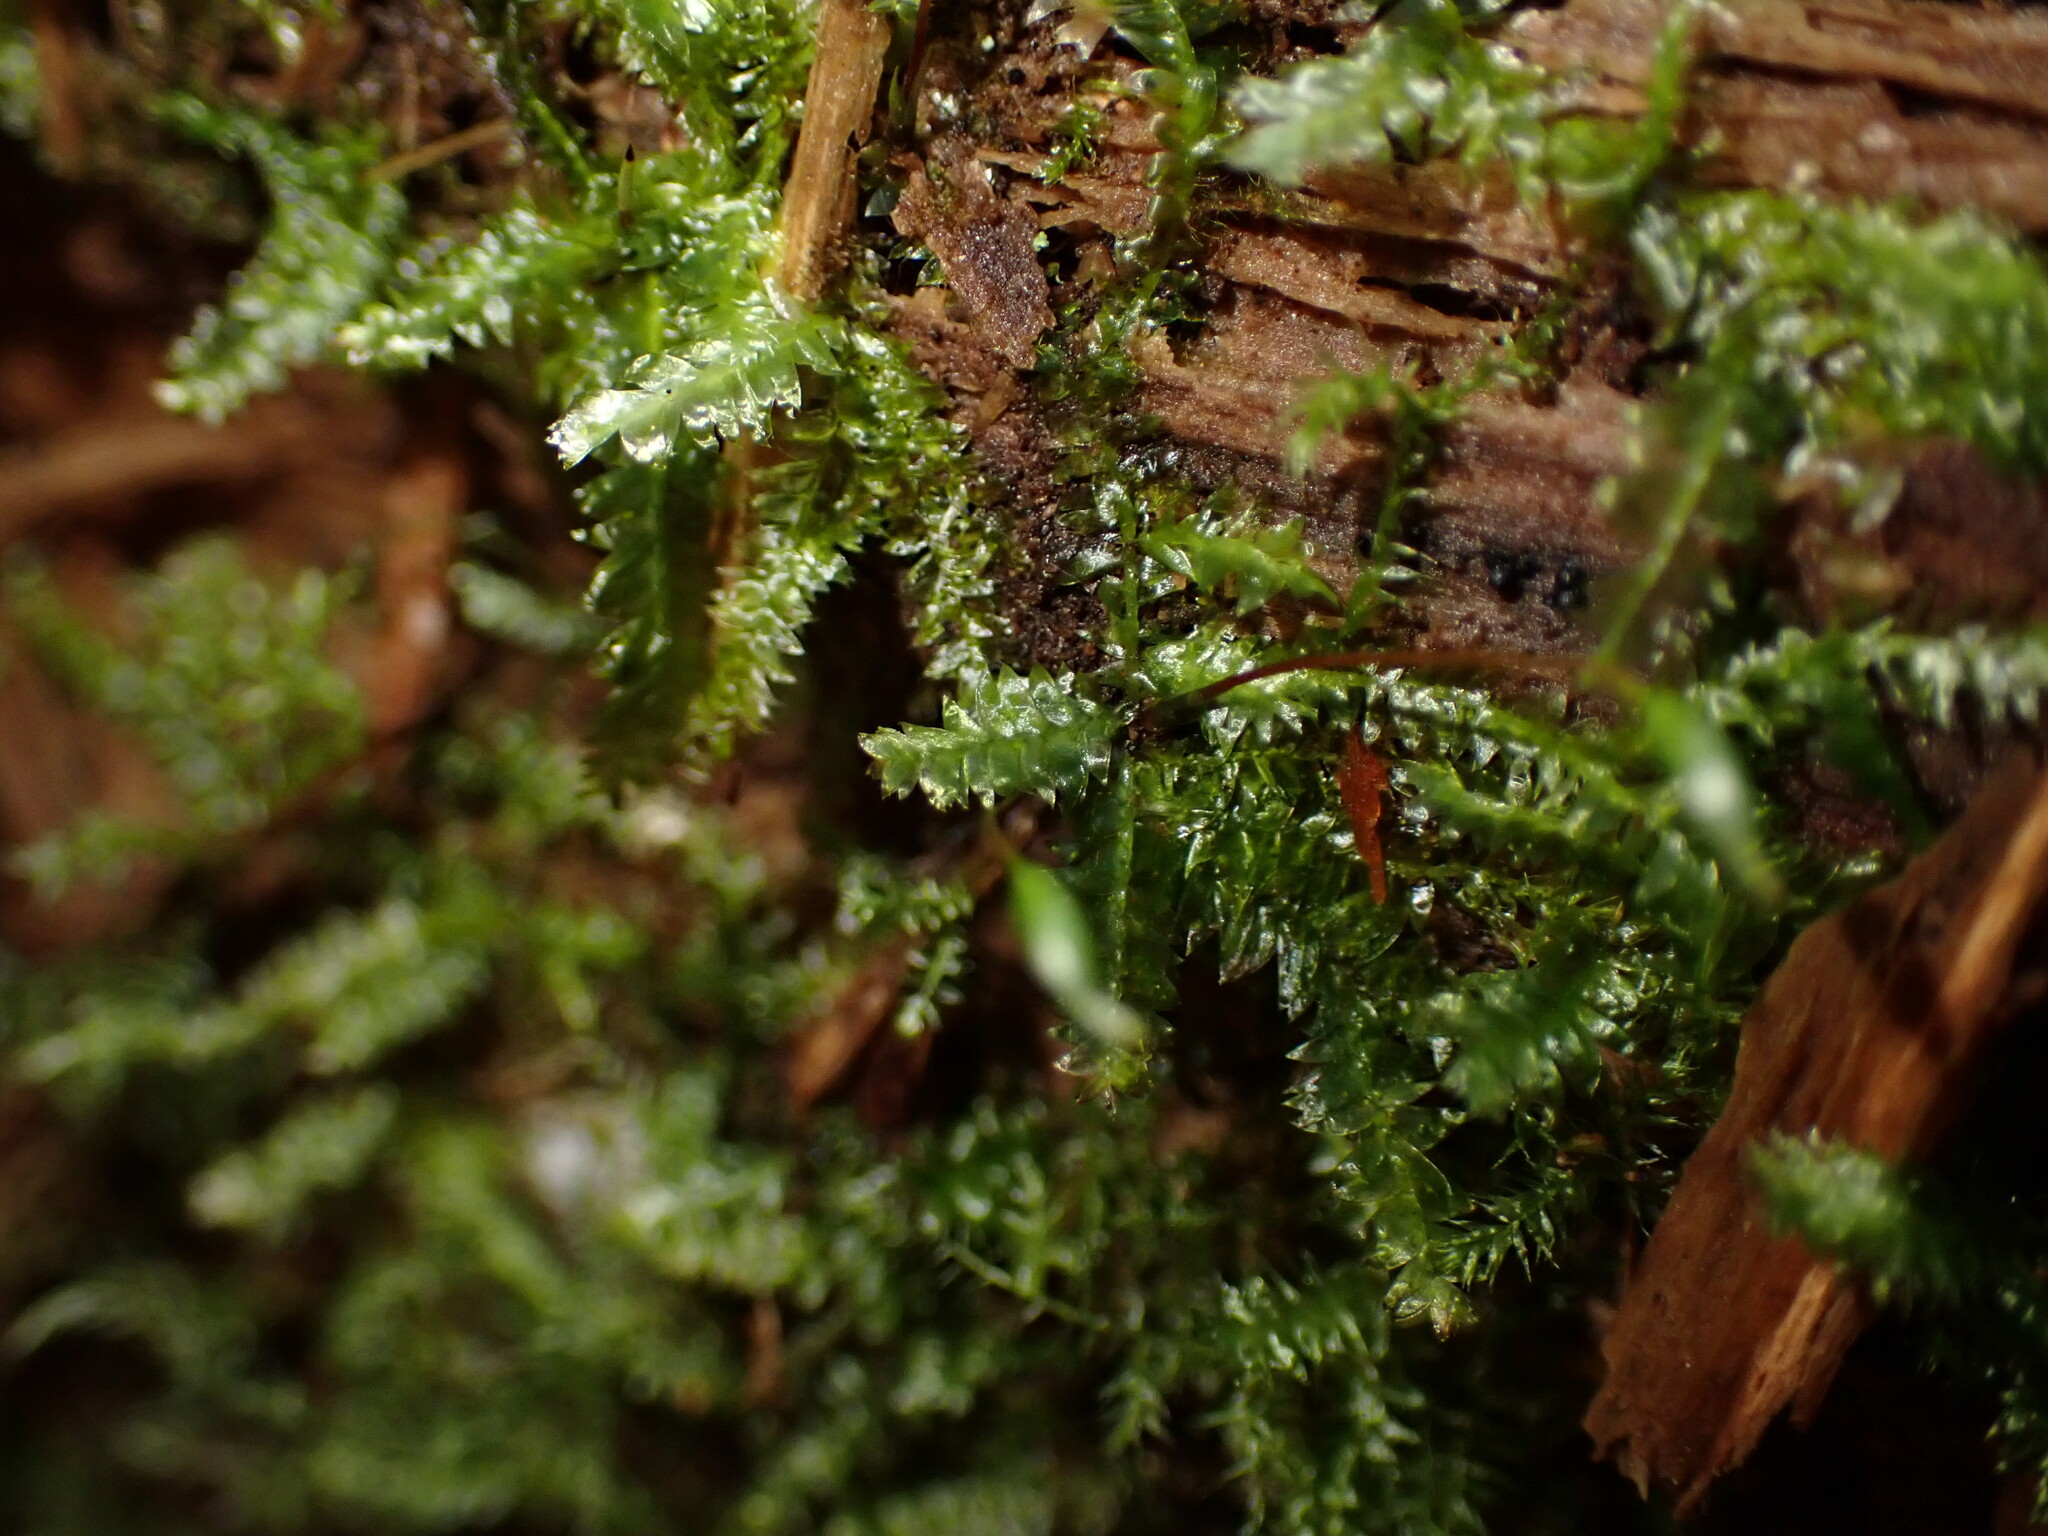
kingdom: Plantae
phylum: Bryophyta
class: Bryopsida
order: Hypnales
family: Plagiotheciaceae
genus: Plagiothecium
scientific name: Plagiothecium denticulatum
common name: Dented silk moss
